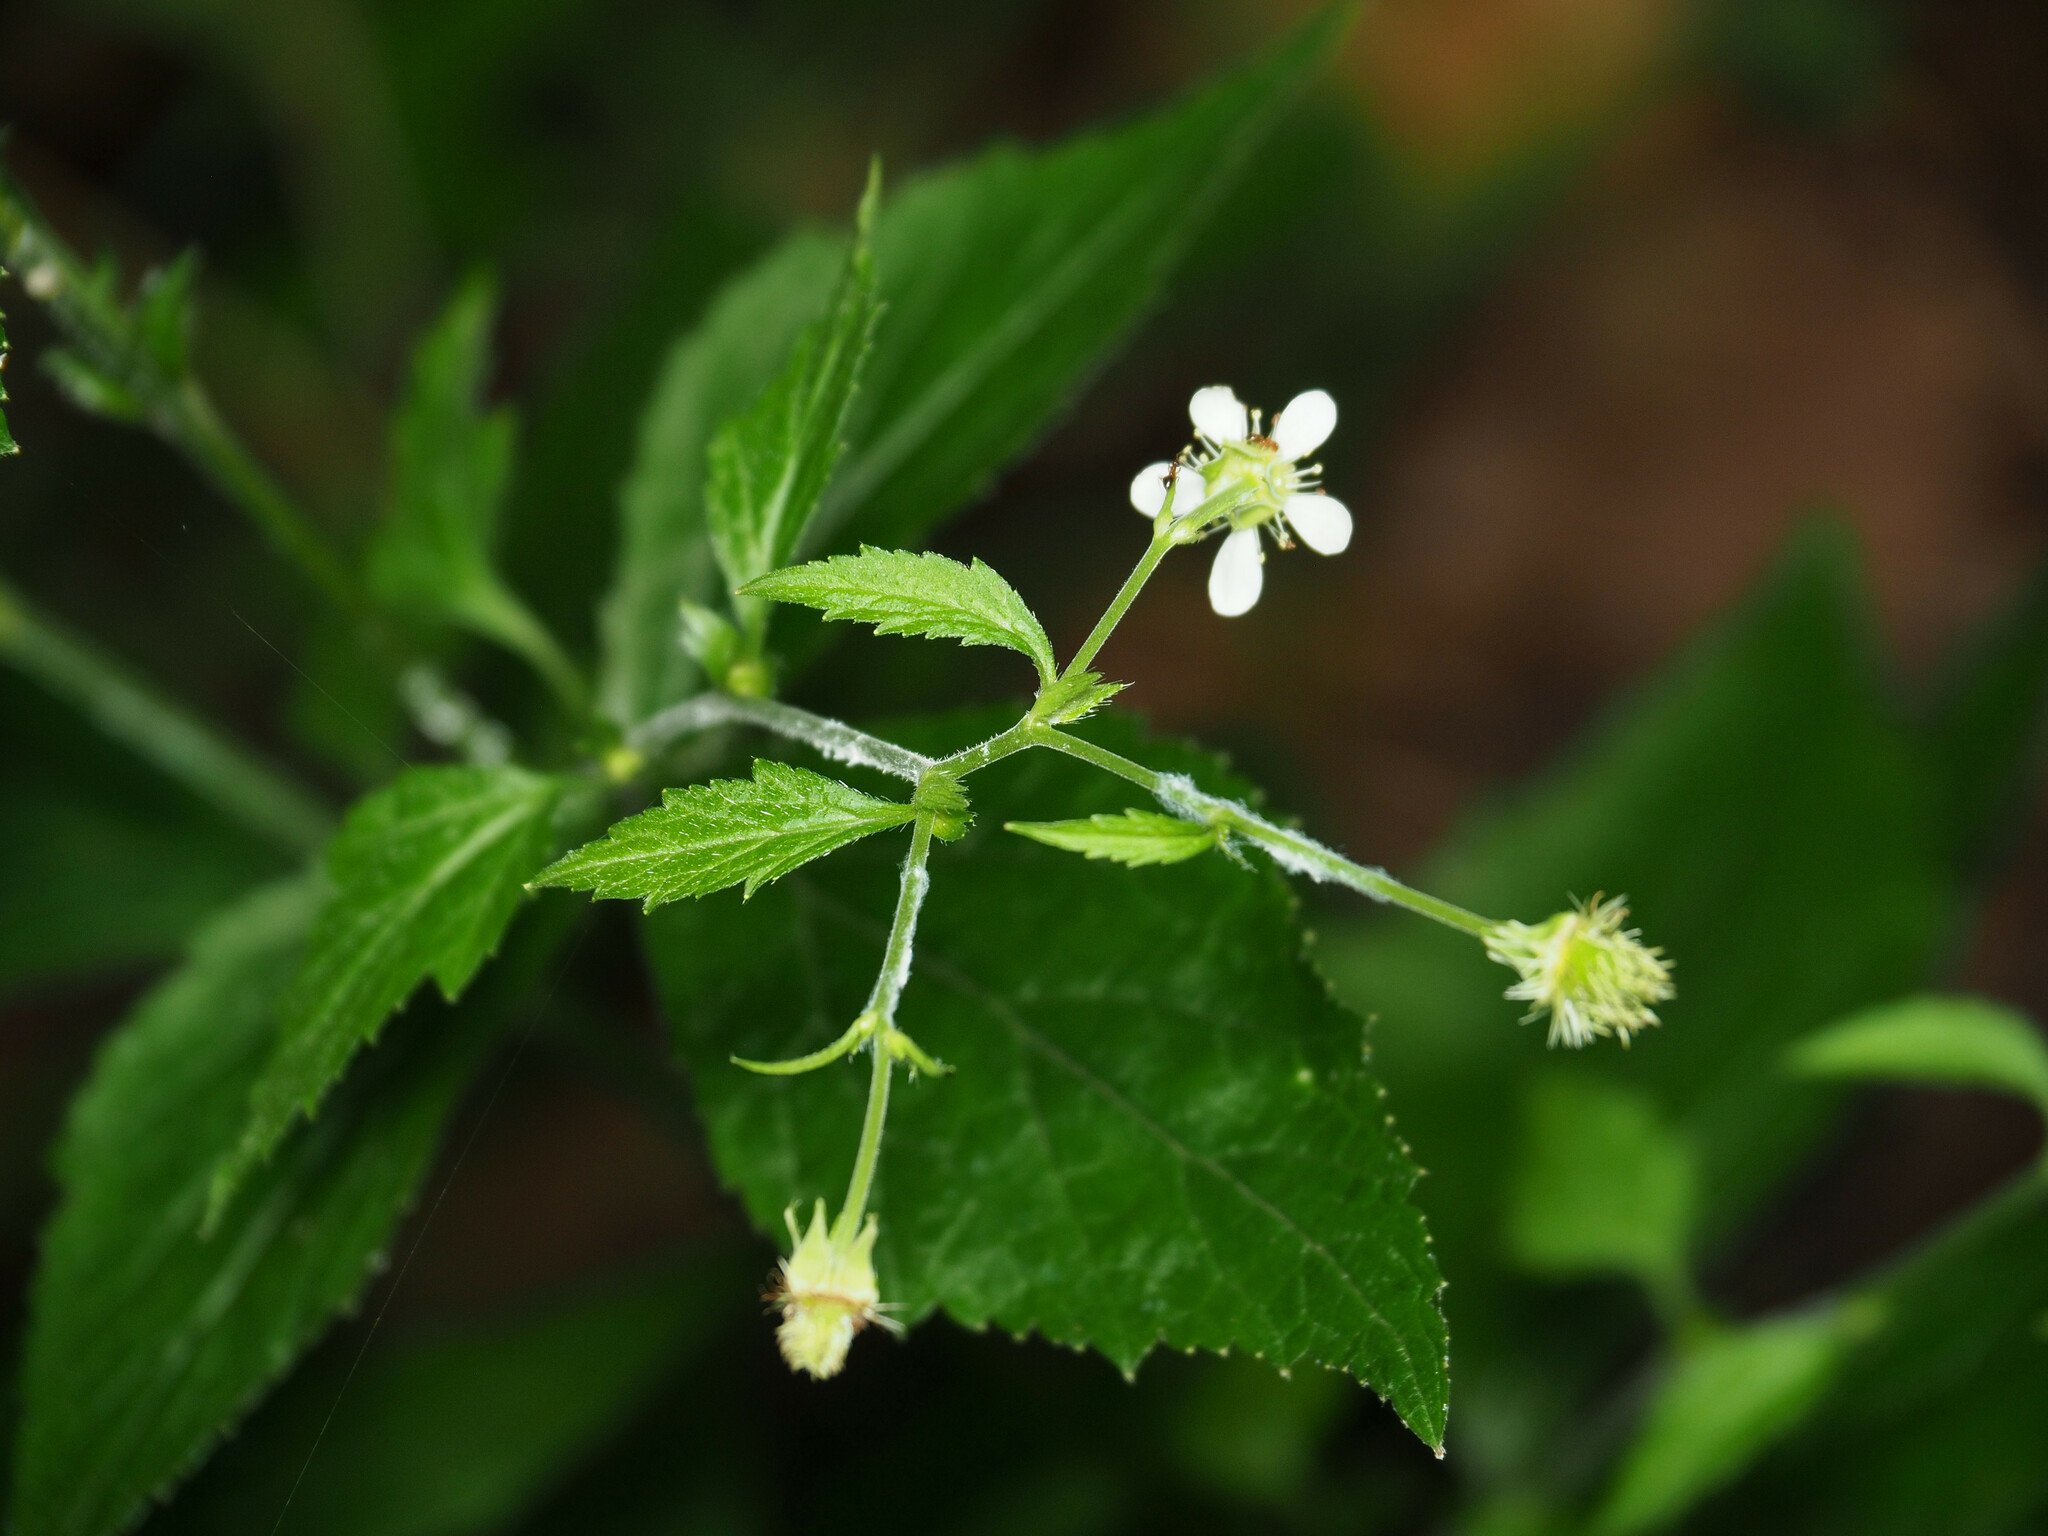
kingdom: Plantae
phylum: Tracheophyta
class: Magnoliopsida
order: Rosales
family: Rosaceae
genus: Geum
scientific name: Geum canadense
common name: White avens
